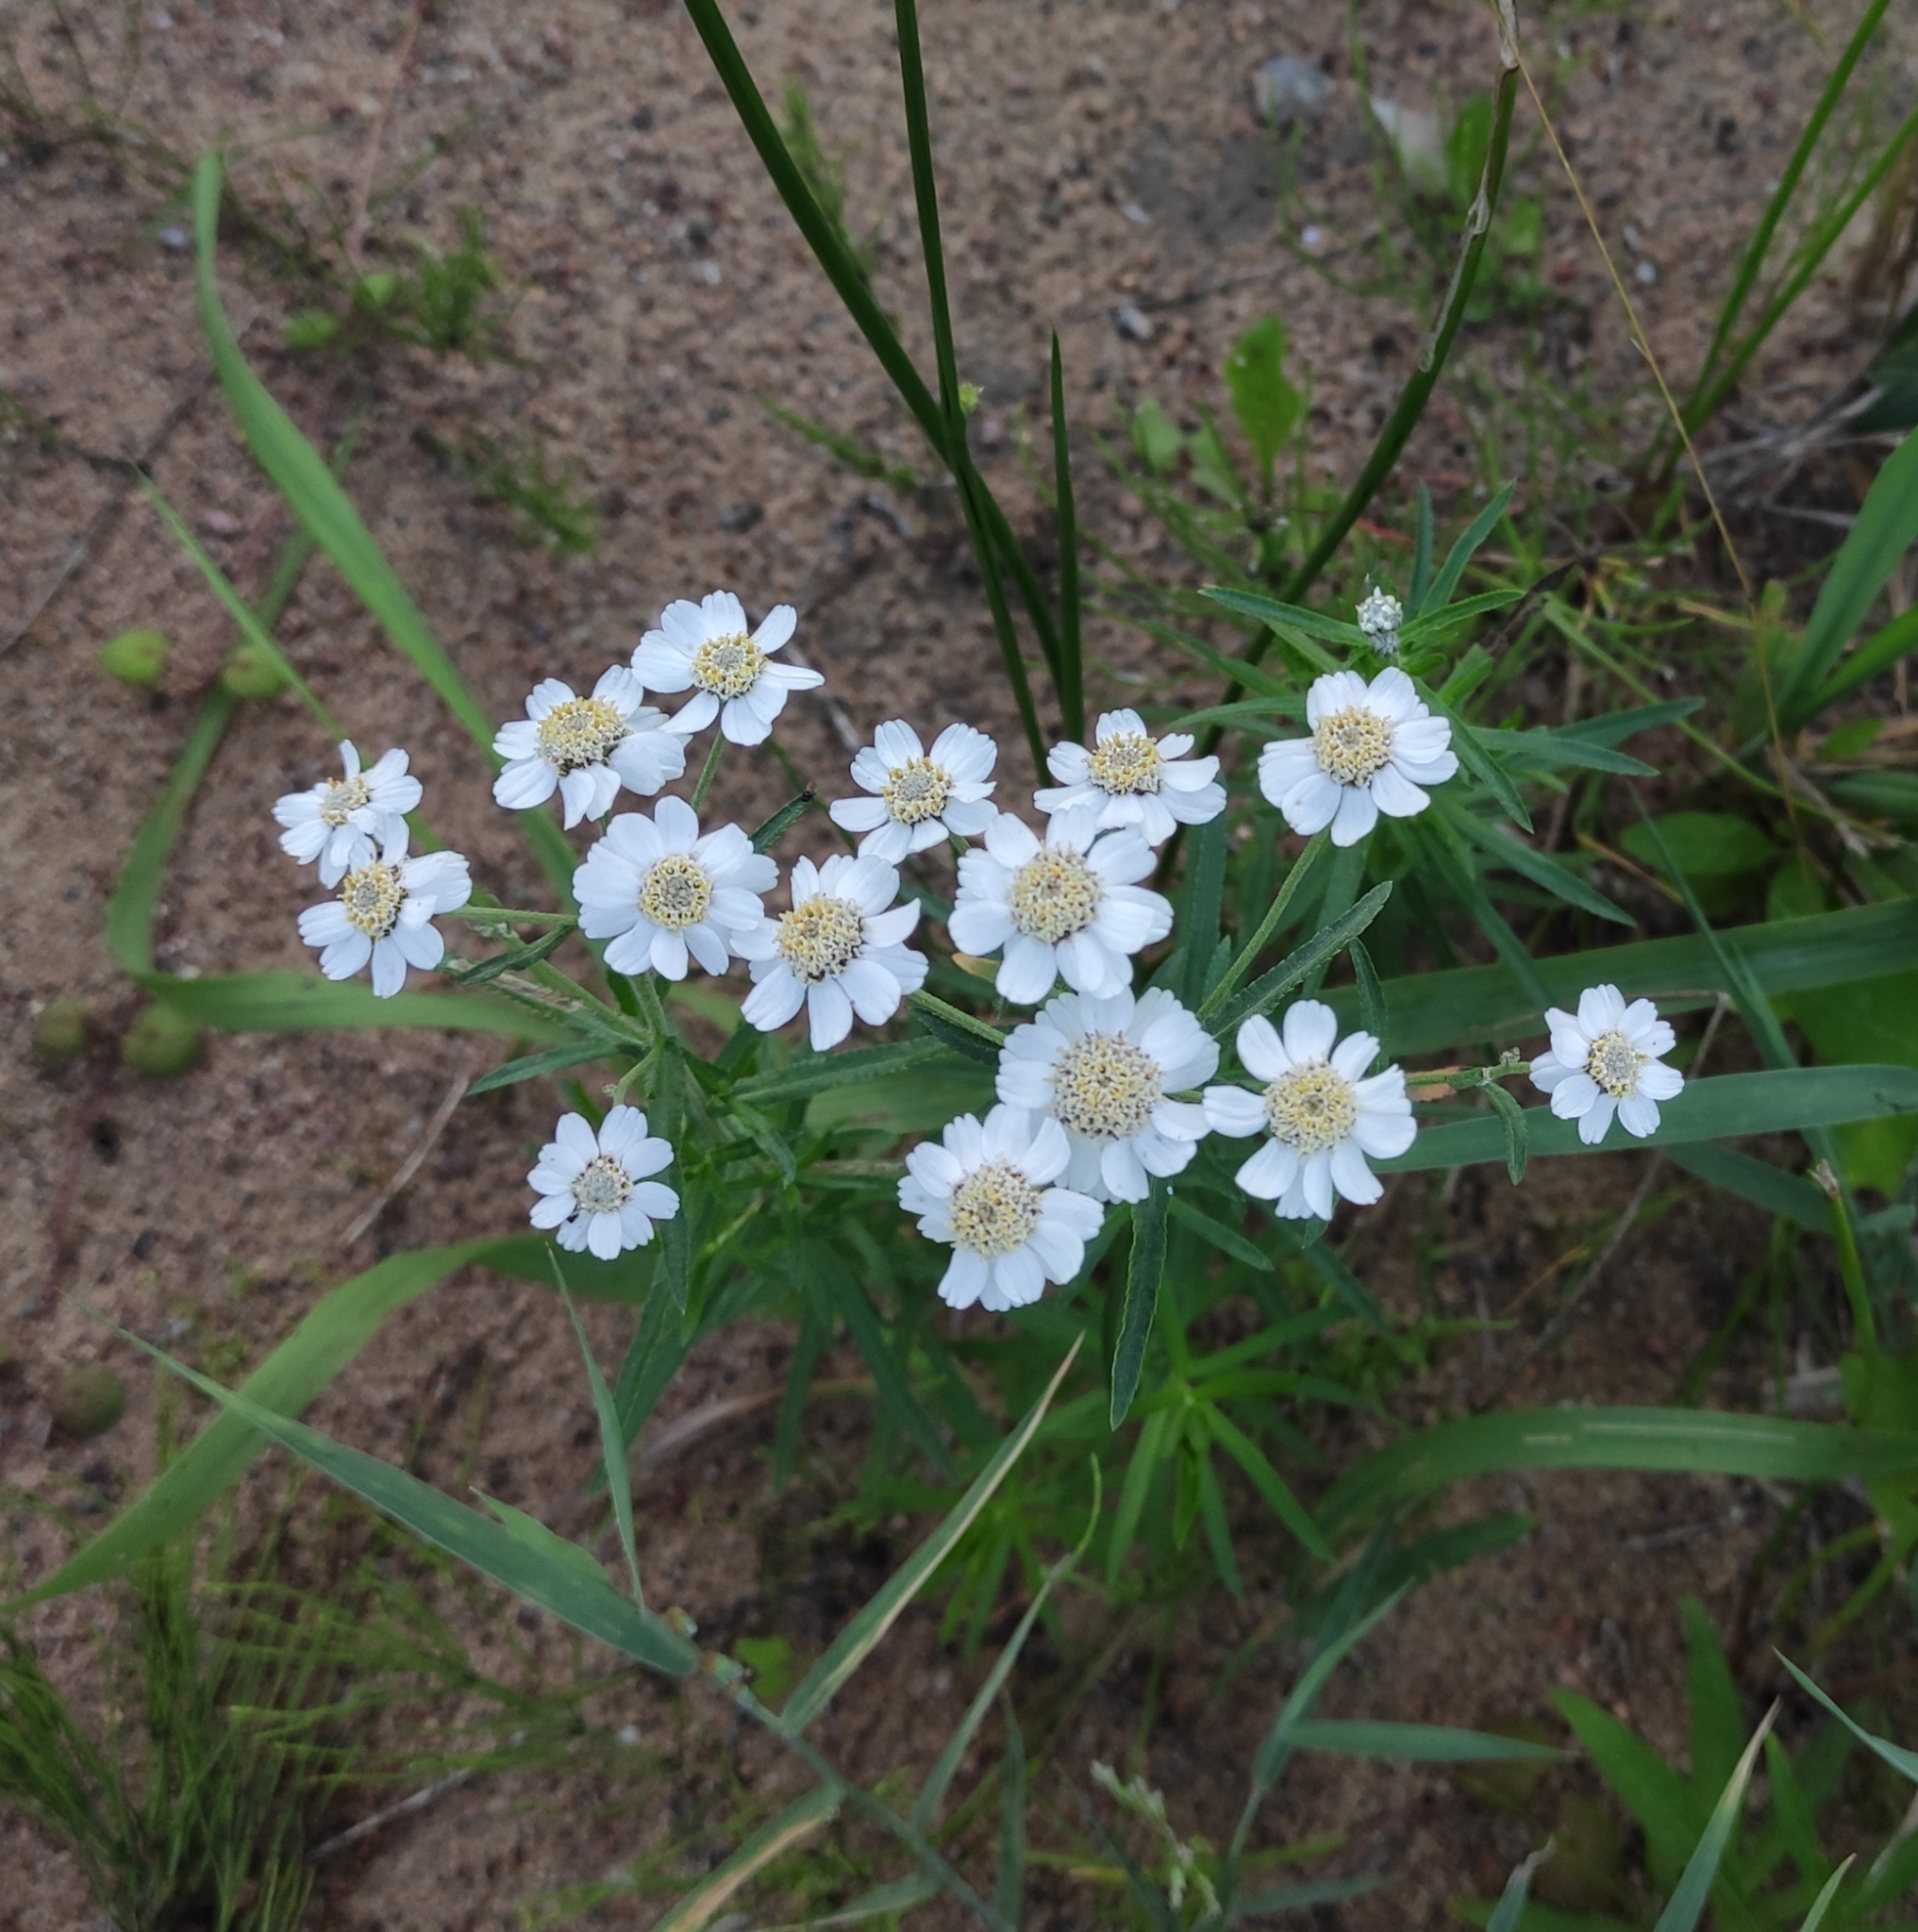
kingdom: Plantae
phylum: Tracheophyta
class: Magnoliopsida
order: Asterales
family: Asteraceae
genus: Achillea
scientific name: Achillea ptarmica
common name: Sneezeweed
